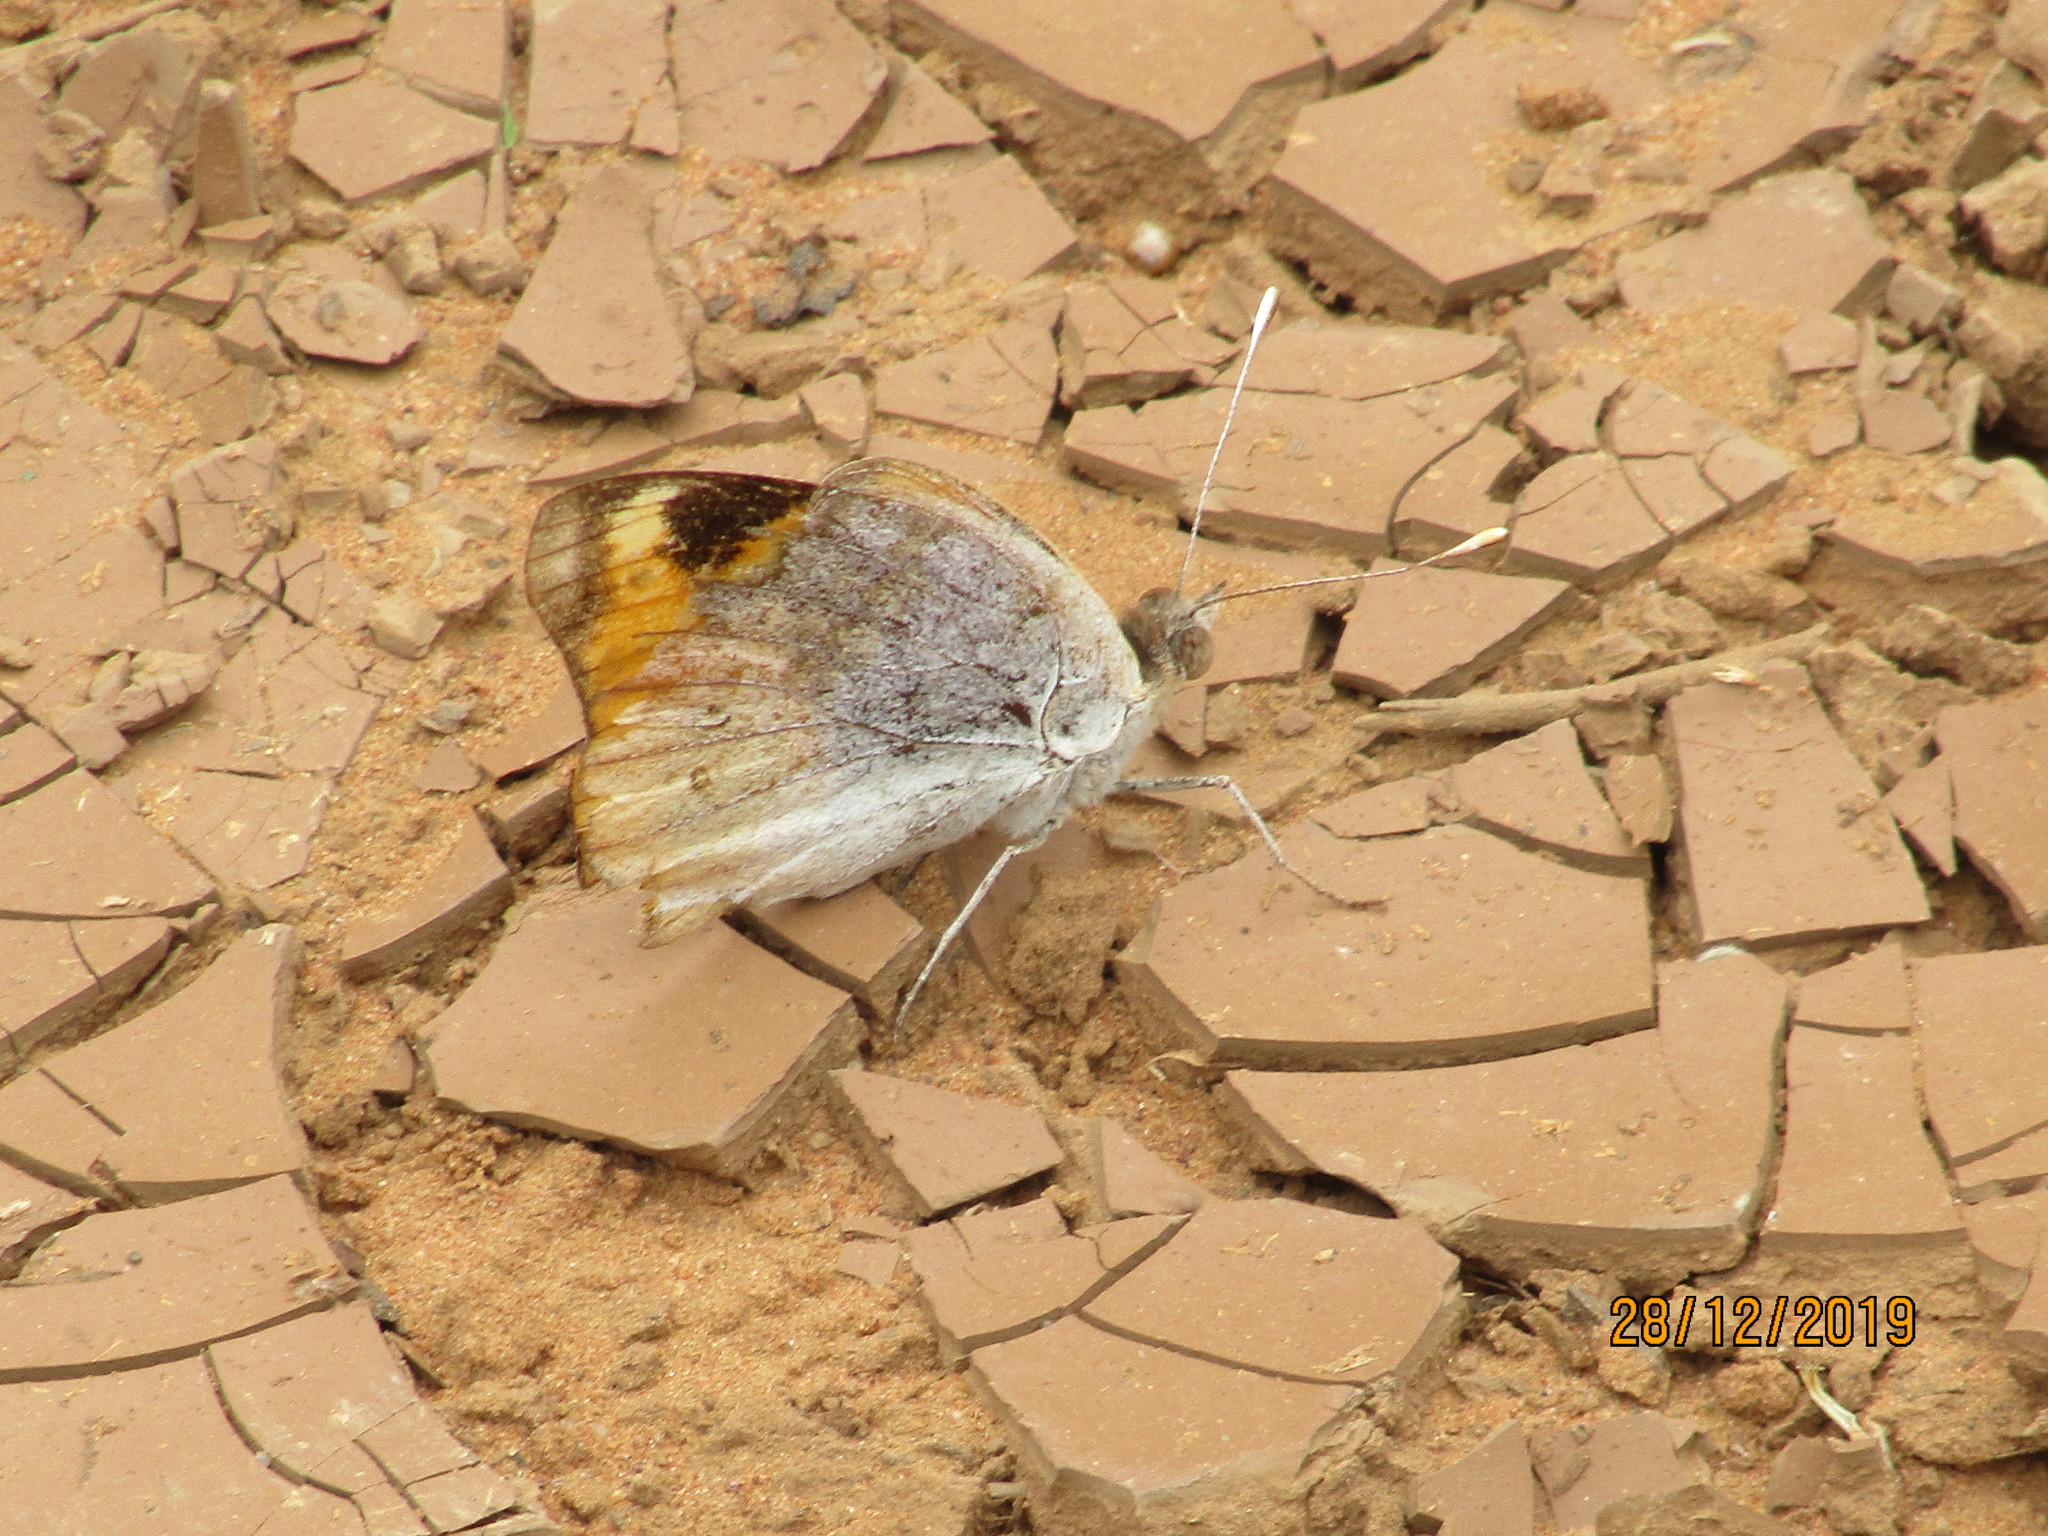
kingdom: Animalia
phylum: Arthropoda
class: Insecta
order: Lepidoptera
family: Nymphalidae
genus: Junonia
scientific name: Junonia hierta
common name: Yellow pansy
